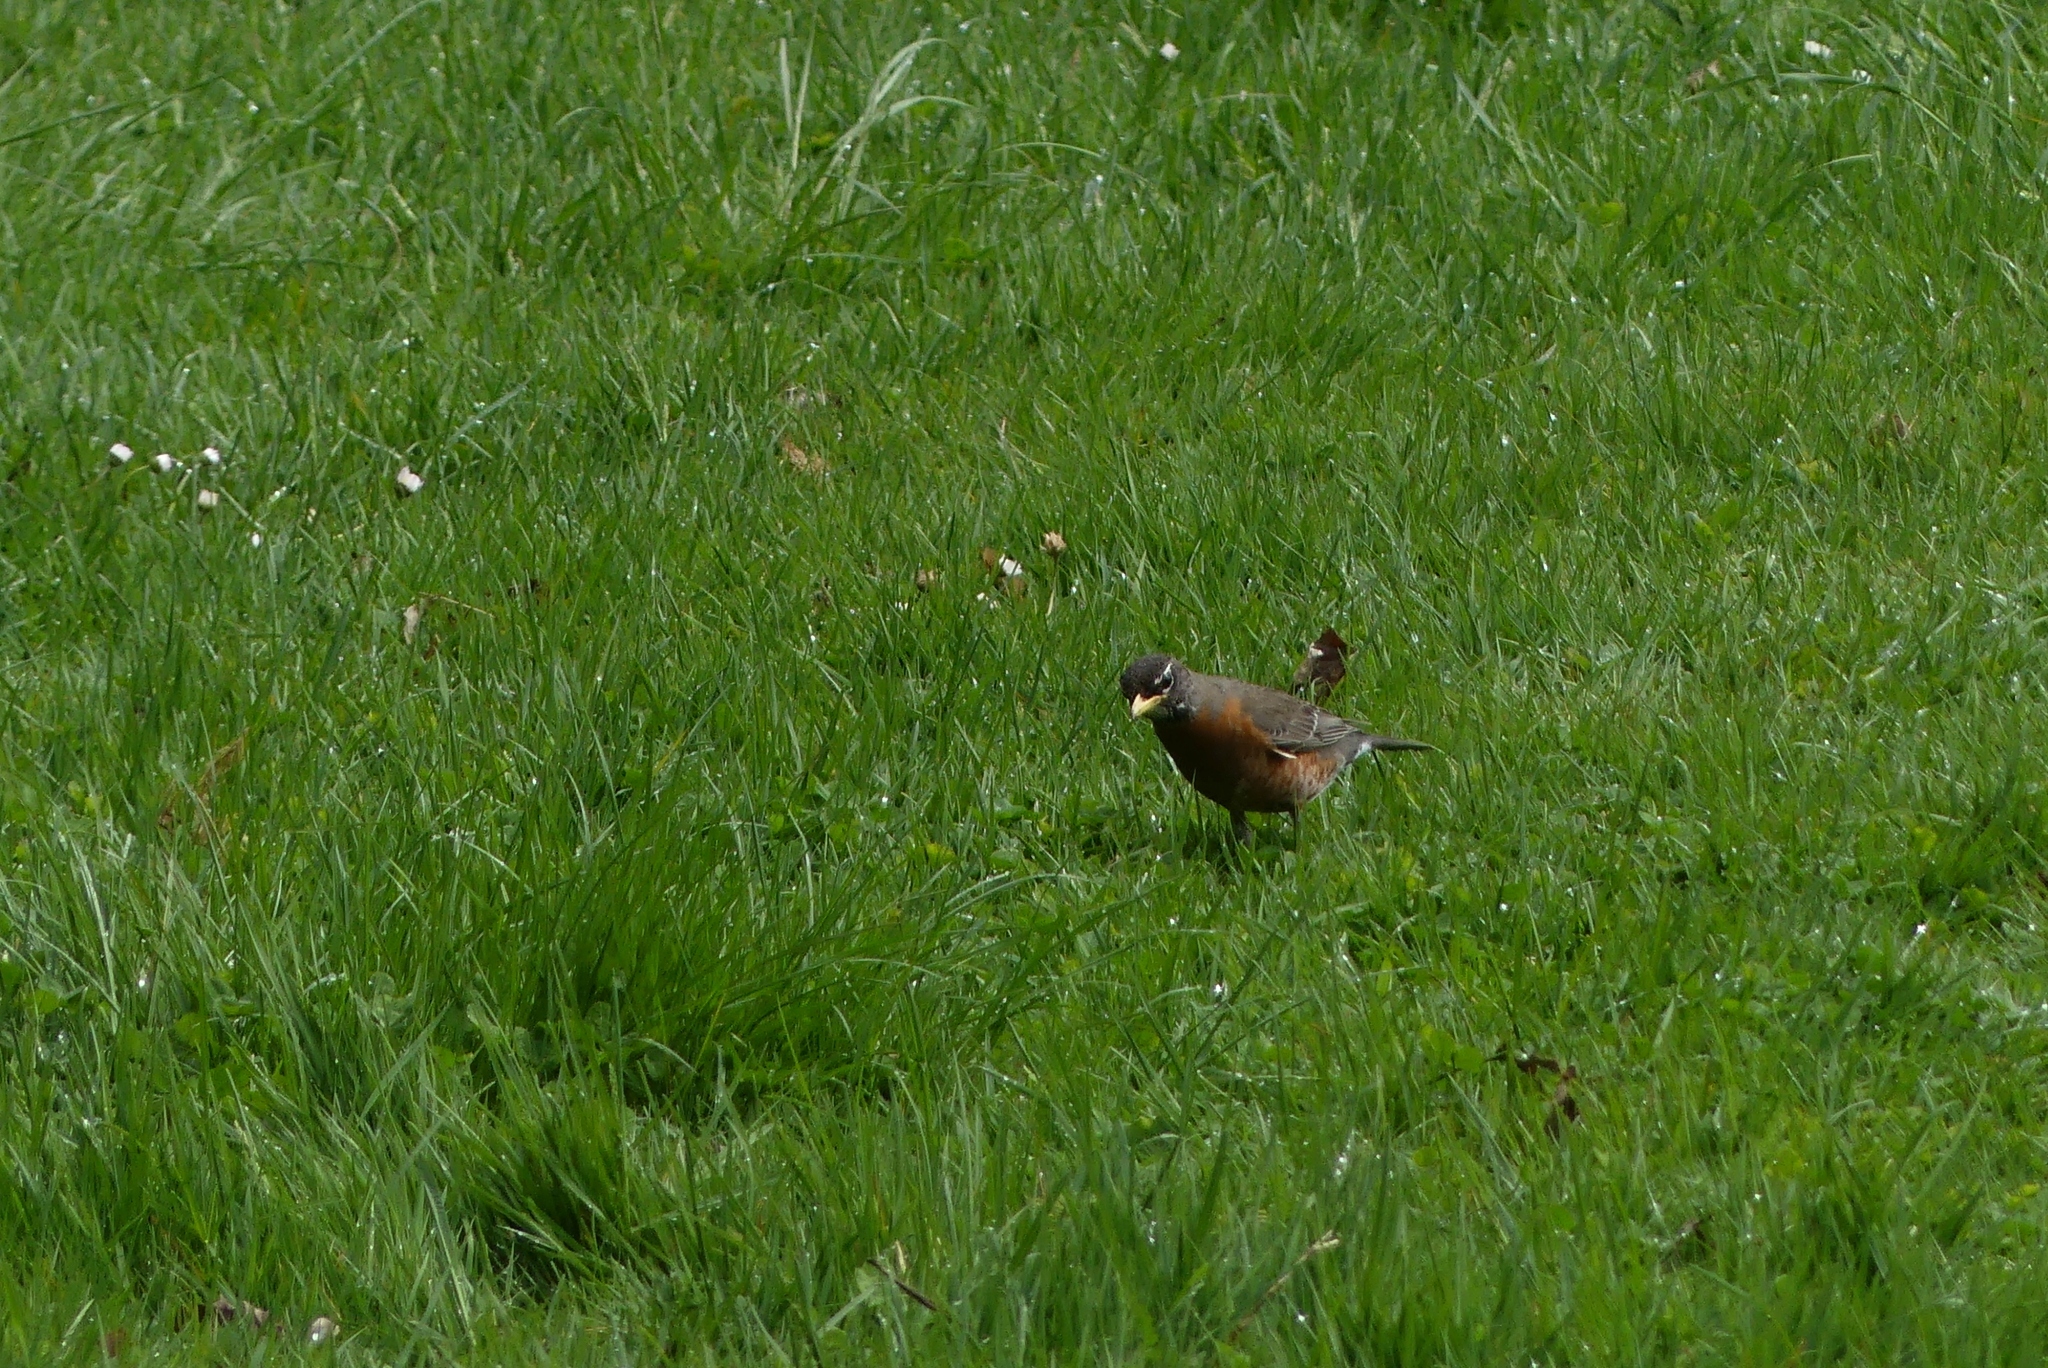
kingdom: Animalia
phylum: Chordata
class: Aves
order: Passeriformes
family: Turdidae
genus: Turdus
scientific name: Turdus migratorius
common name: American robin
